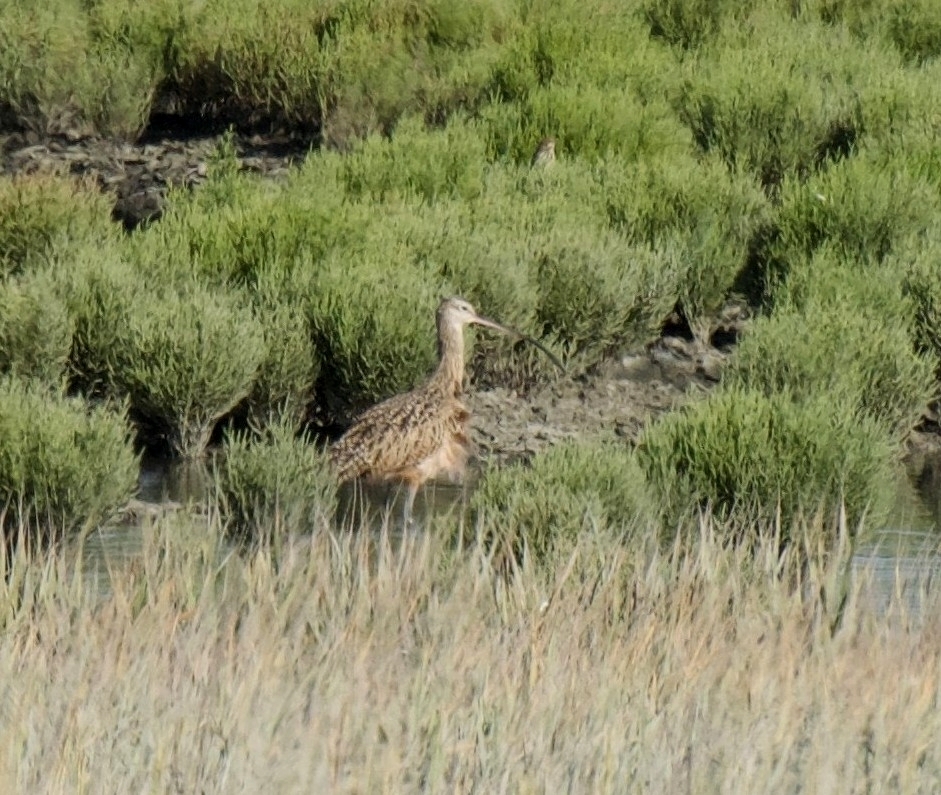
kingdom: Animalia
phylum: Chordata
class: Aves
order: Charadriiformes
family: Scolopacidae
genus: Numenius
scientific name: Numenius americanus
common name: Long-billed curlew
